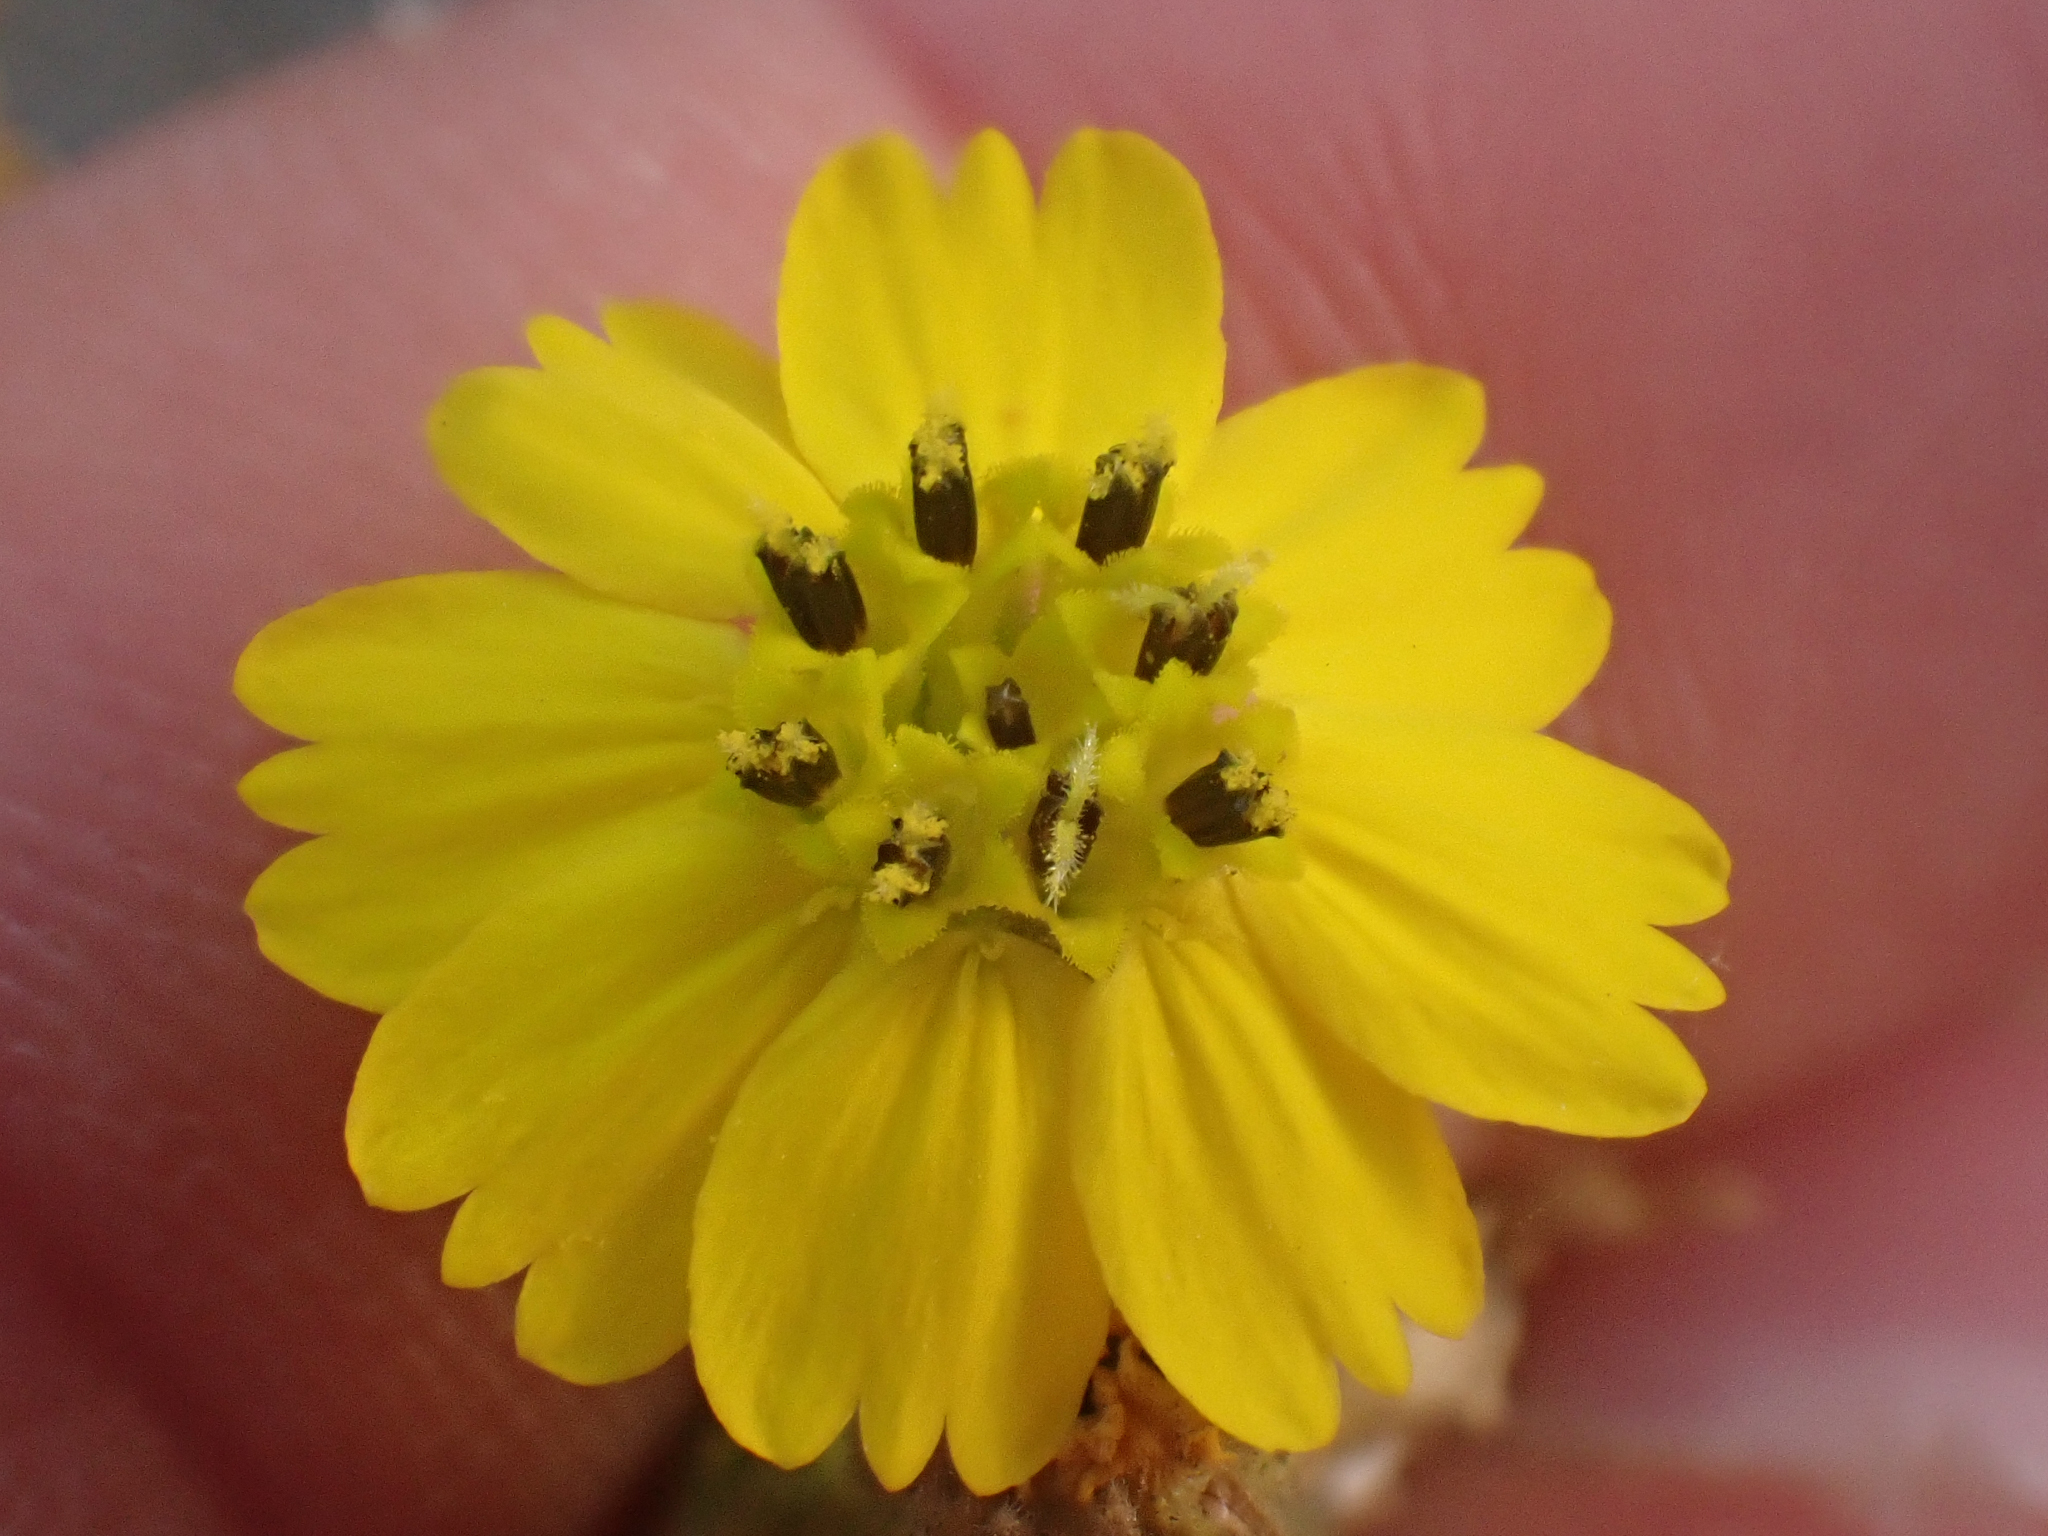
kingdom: Plantae
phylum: Tracheophyta
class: Magnoliopsida
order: Asterales
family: Asteraceae
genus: Deinandra
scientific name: Deinandra paniculata
